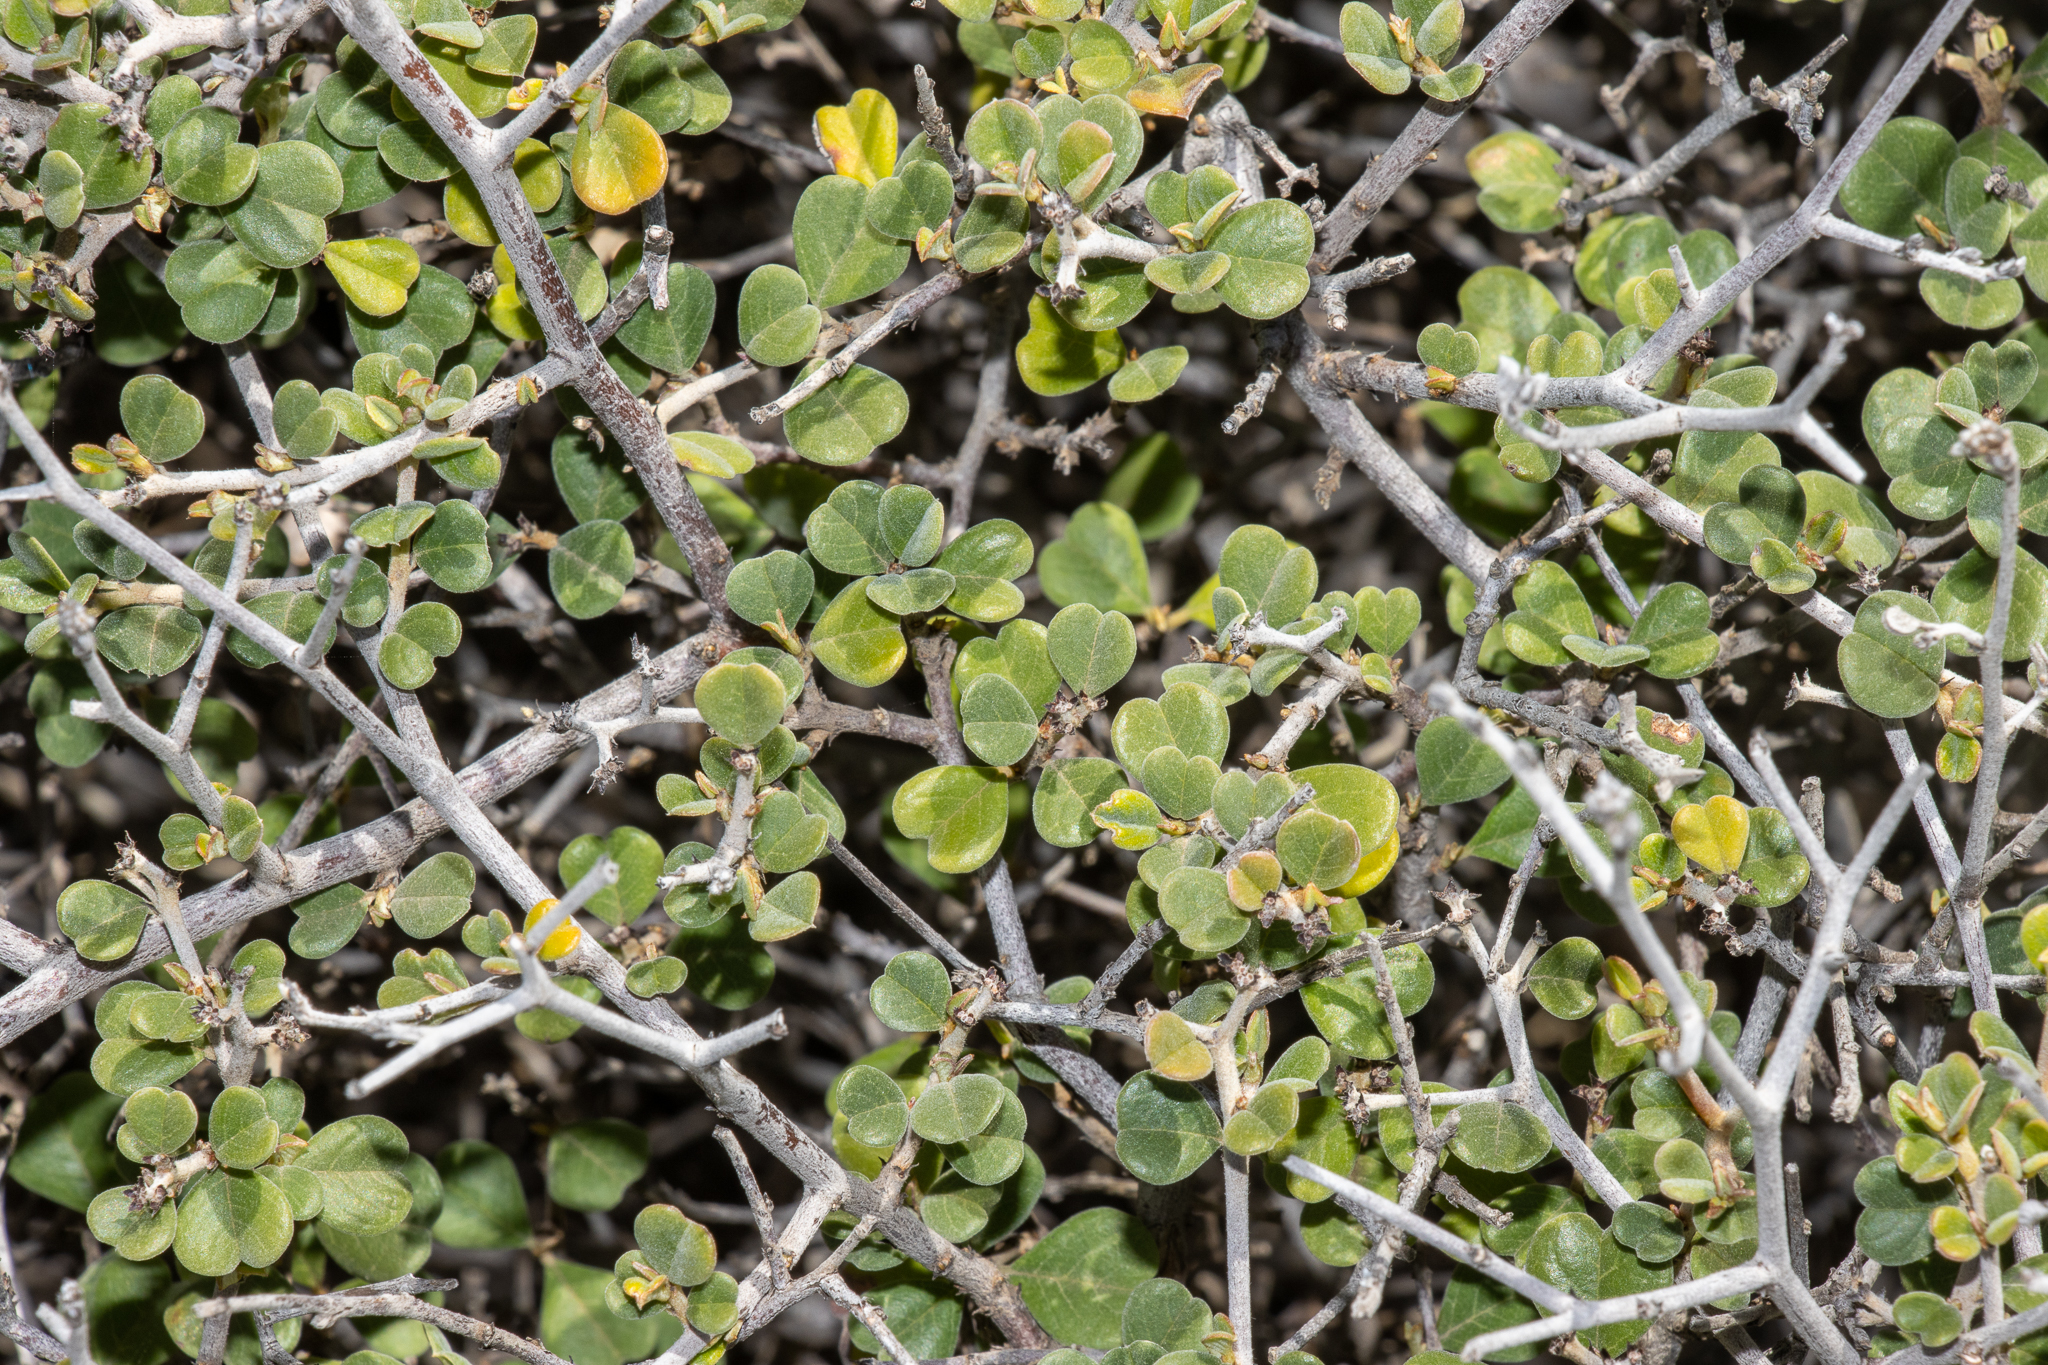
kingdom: Plantae
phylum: Tracheophyta
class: Magnoliopsida
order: Rosales
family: Rhamnaceae
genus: Pomaderris
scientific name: Pomaderris forrestiana
